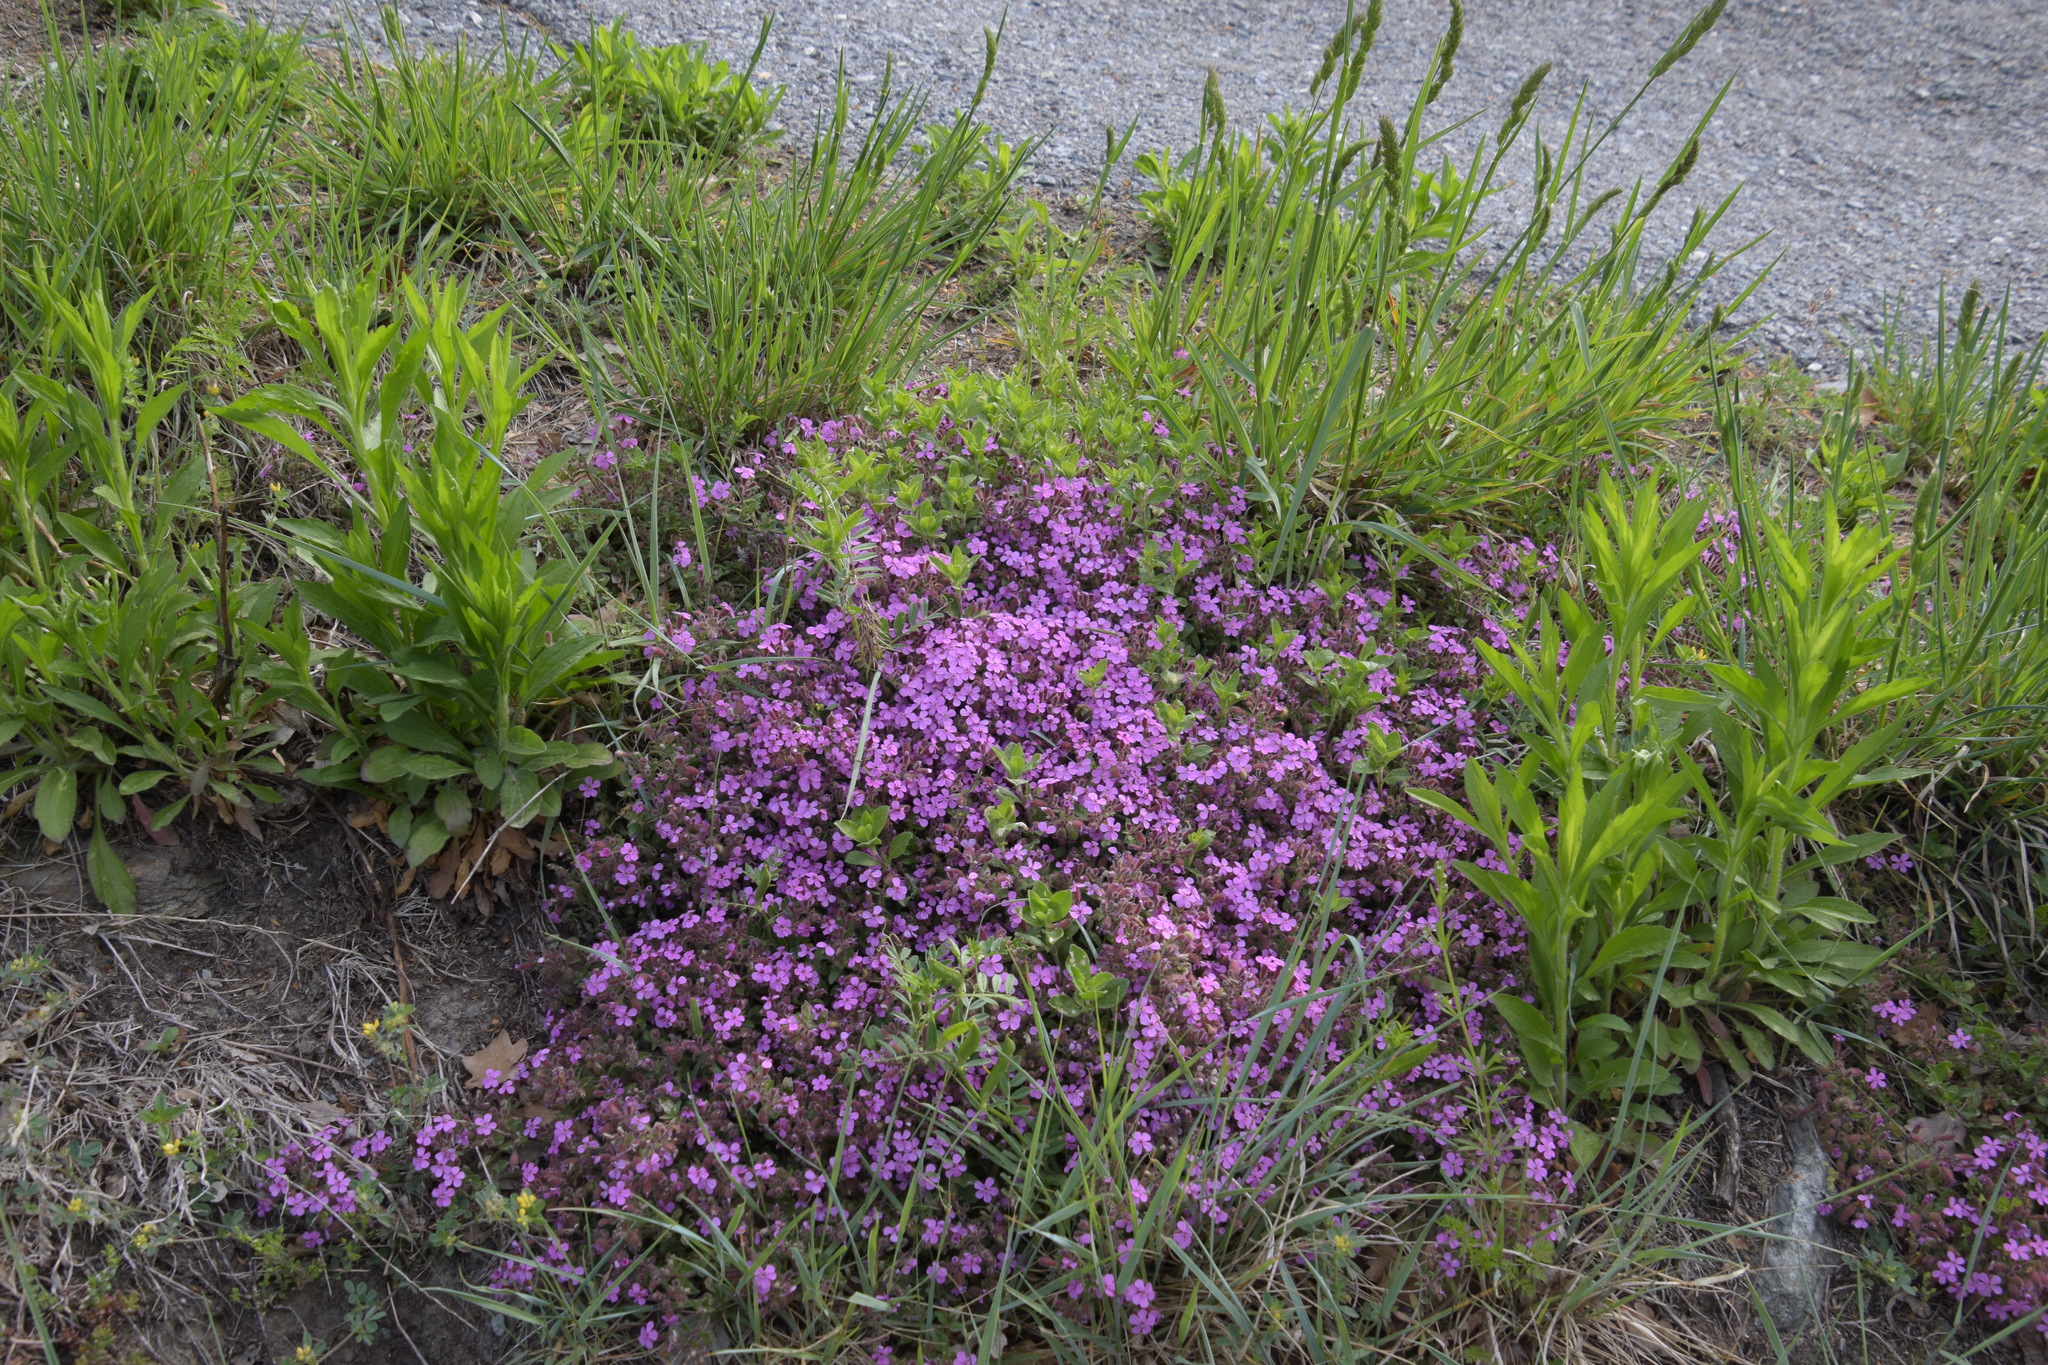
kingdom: Plantae
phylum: Tracheophyta
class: Magnoliopsida
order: Caryophyllales
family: Caryophyllaceae
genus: Saponaria
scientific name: Saponaria ocymoides
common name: Rock soapwort
